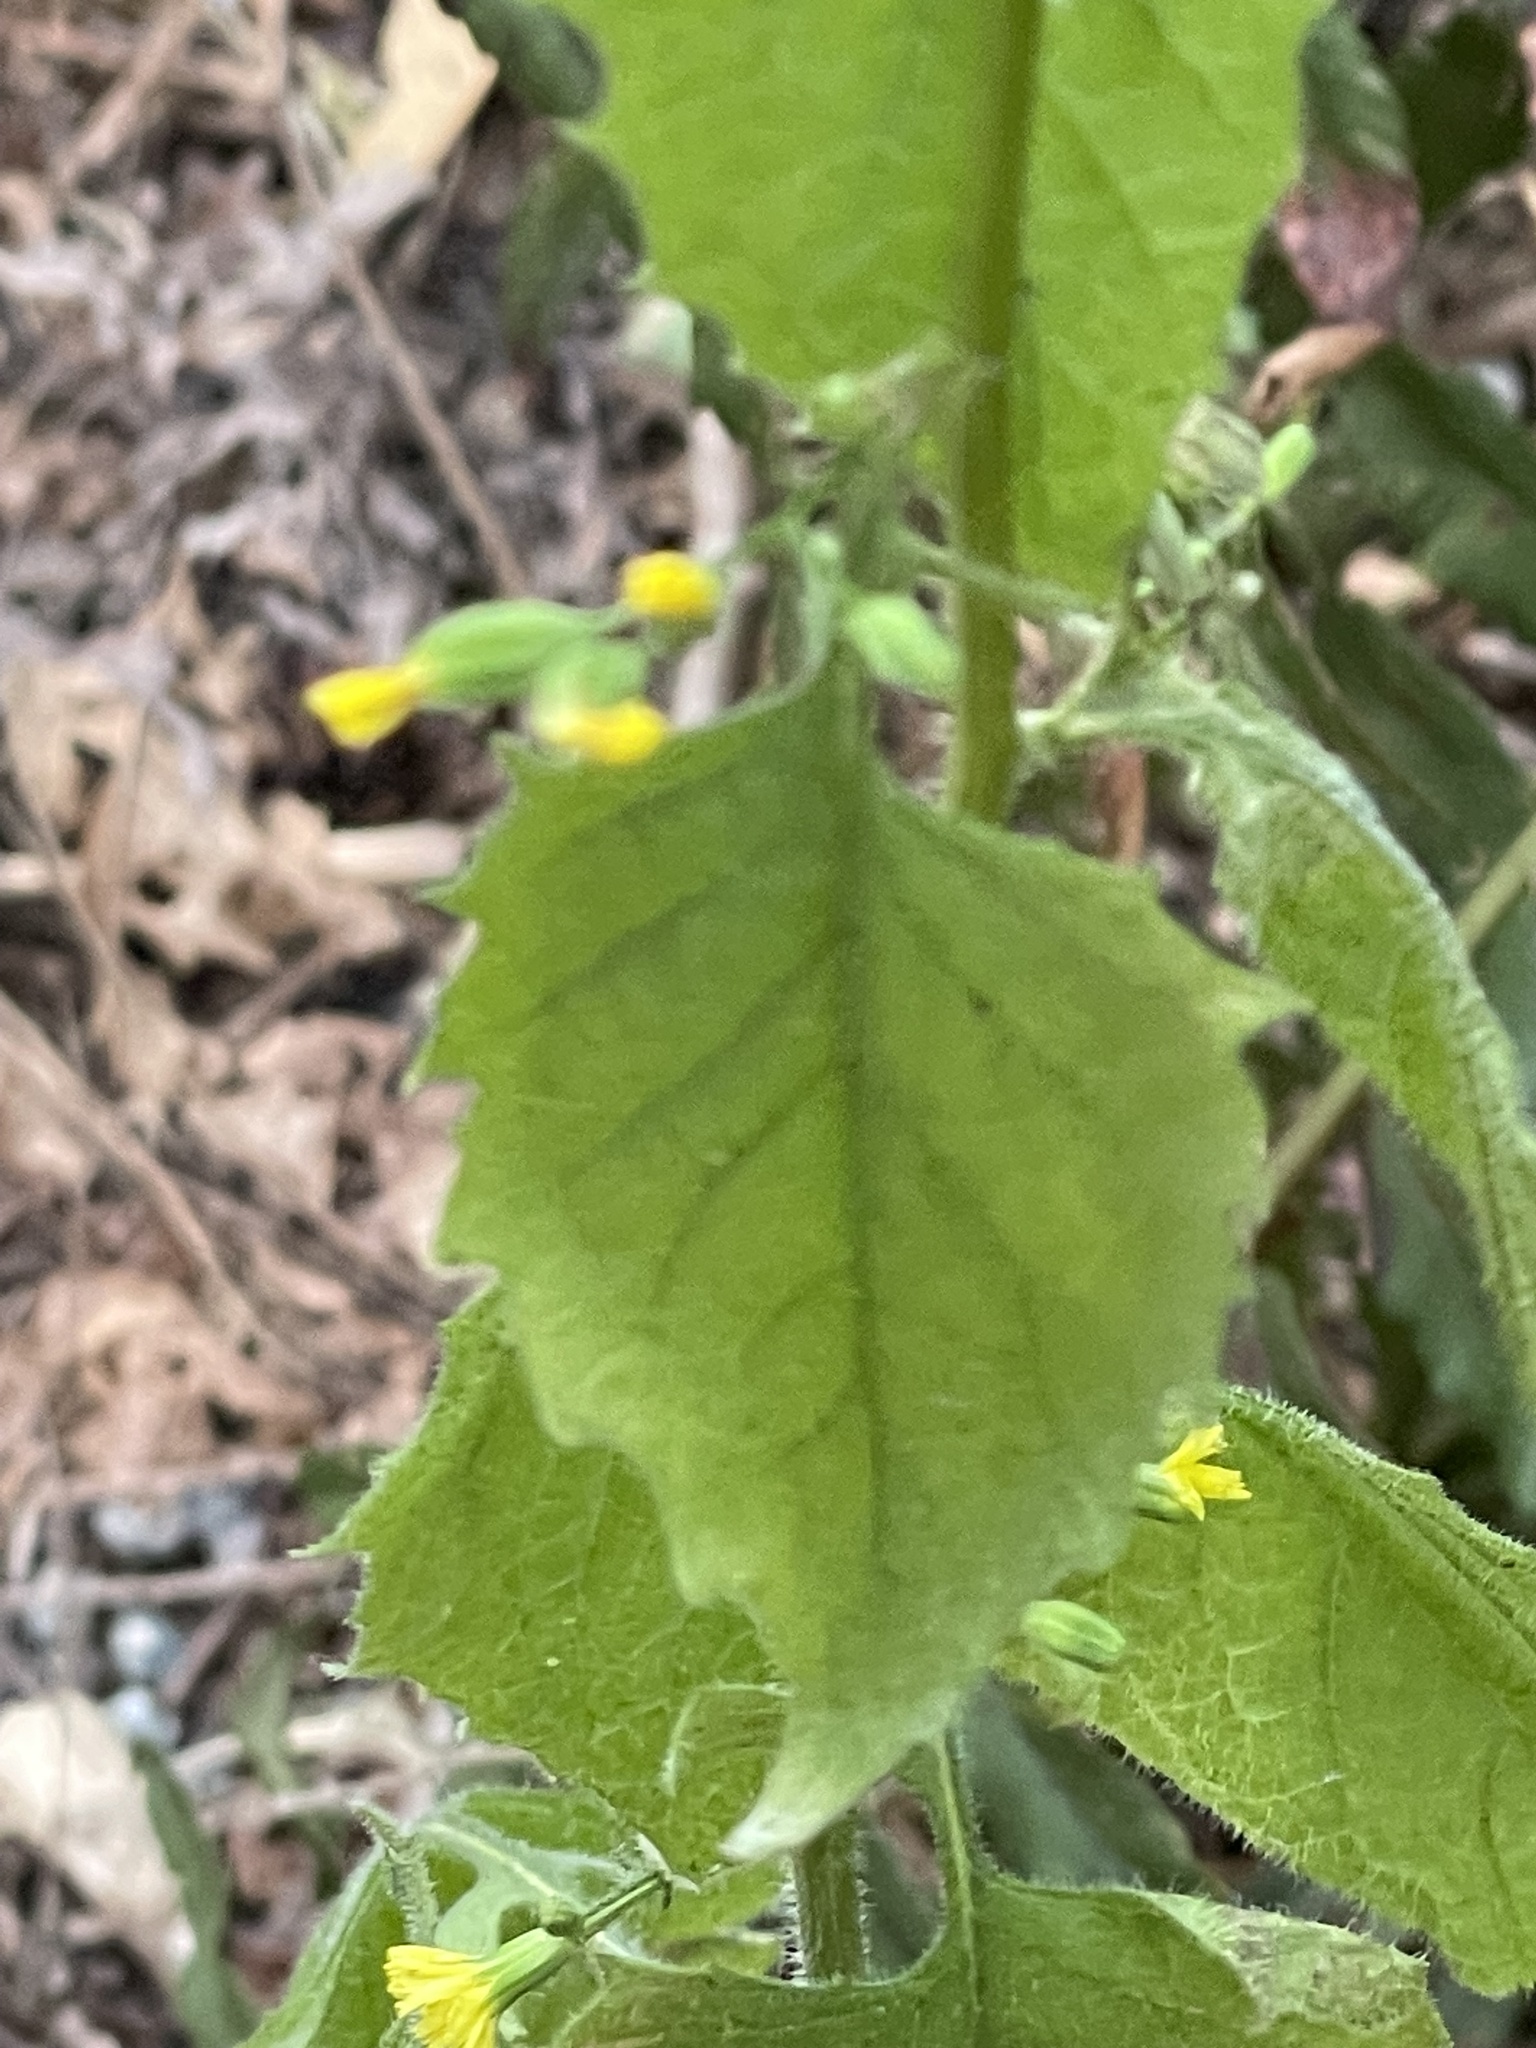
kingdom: Plantae
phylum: Tracheophyta
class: Magnoliopsida
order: Asterales
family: Asteraceae
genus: Lapsana
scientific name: Lapsana communis
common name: Nipplewort
